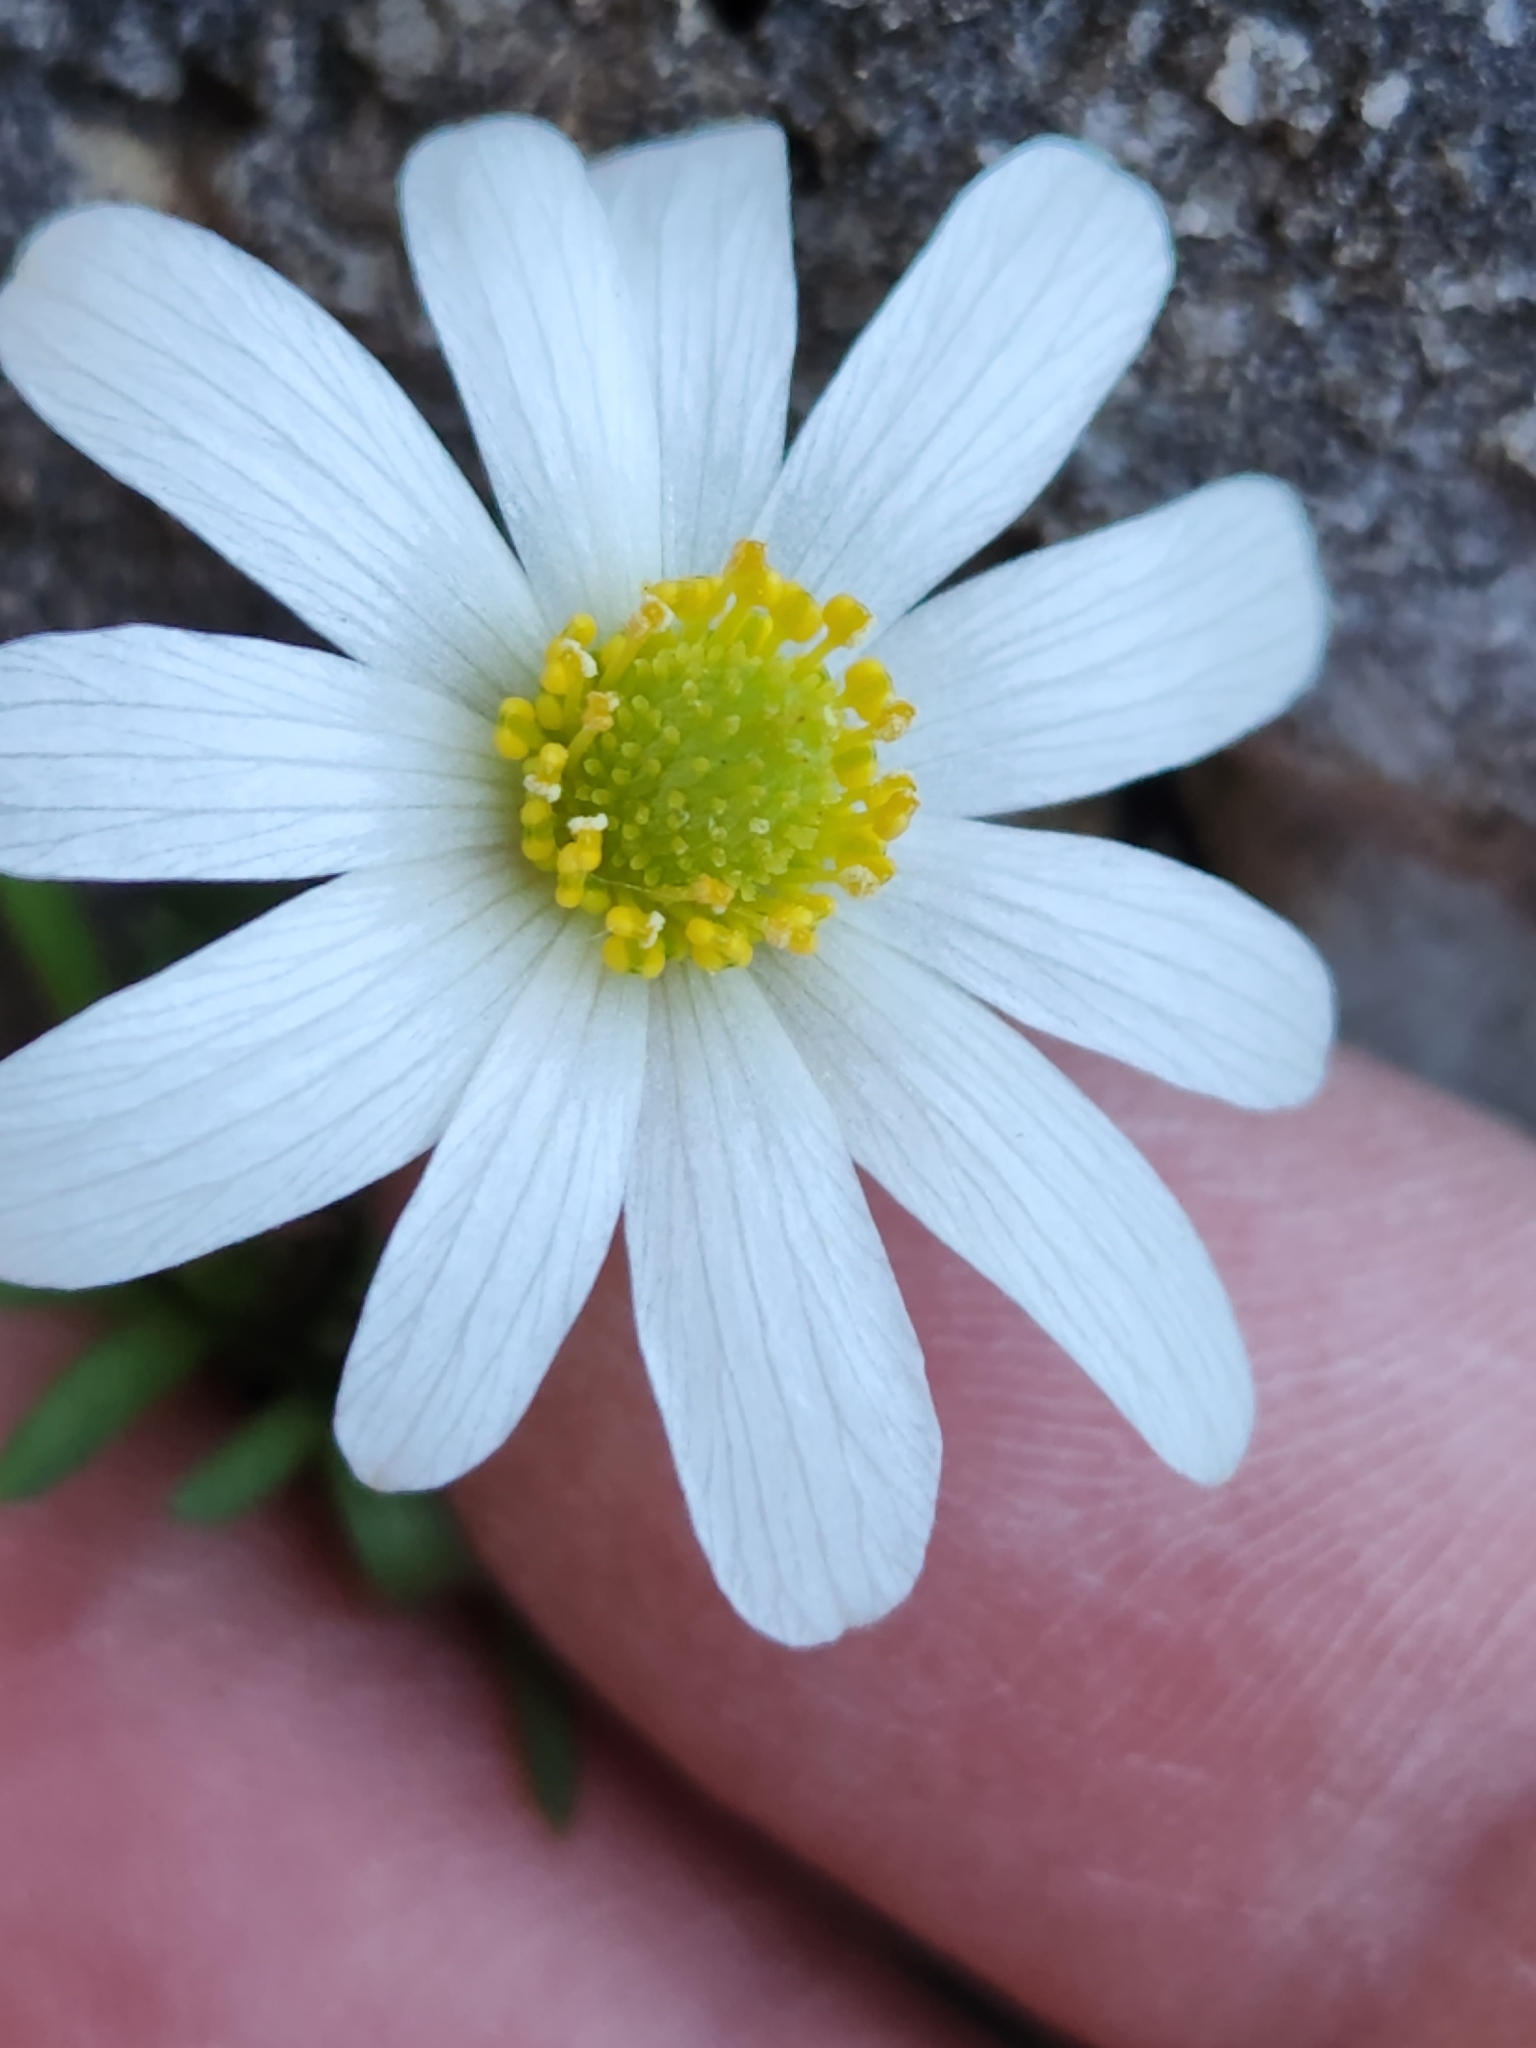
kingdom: Plantae
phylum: Tracheophyta
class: Magnoliopsida
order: Ranunculales
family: Ranunculaceae
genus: Anemone
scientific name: Anemone edwardsiana
